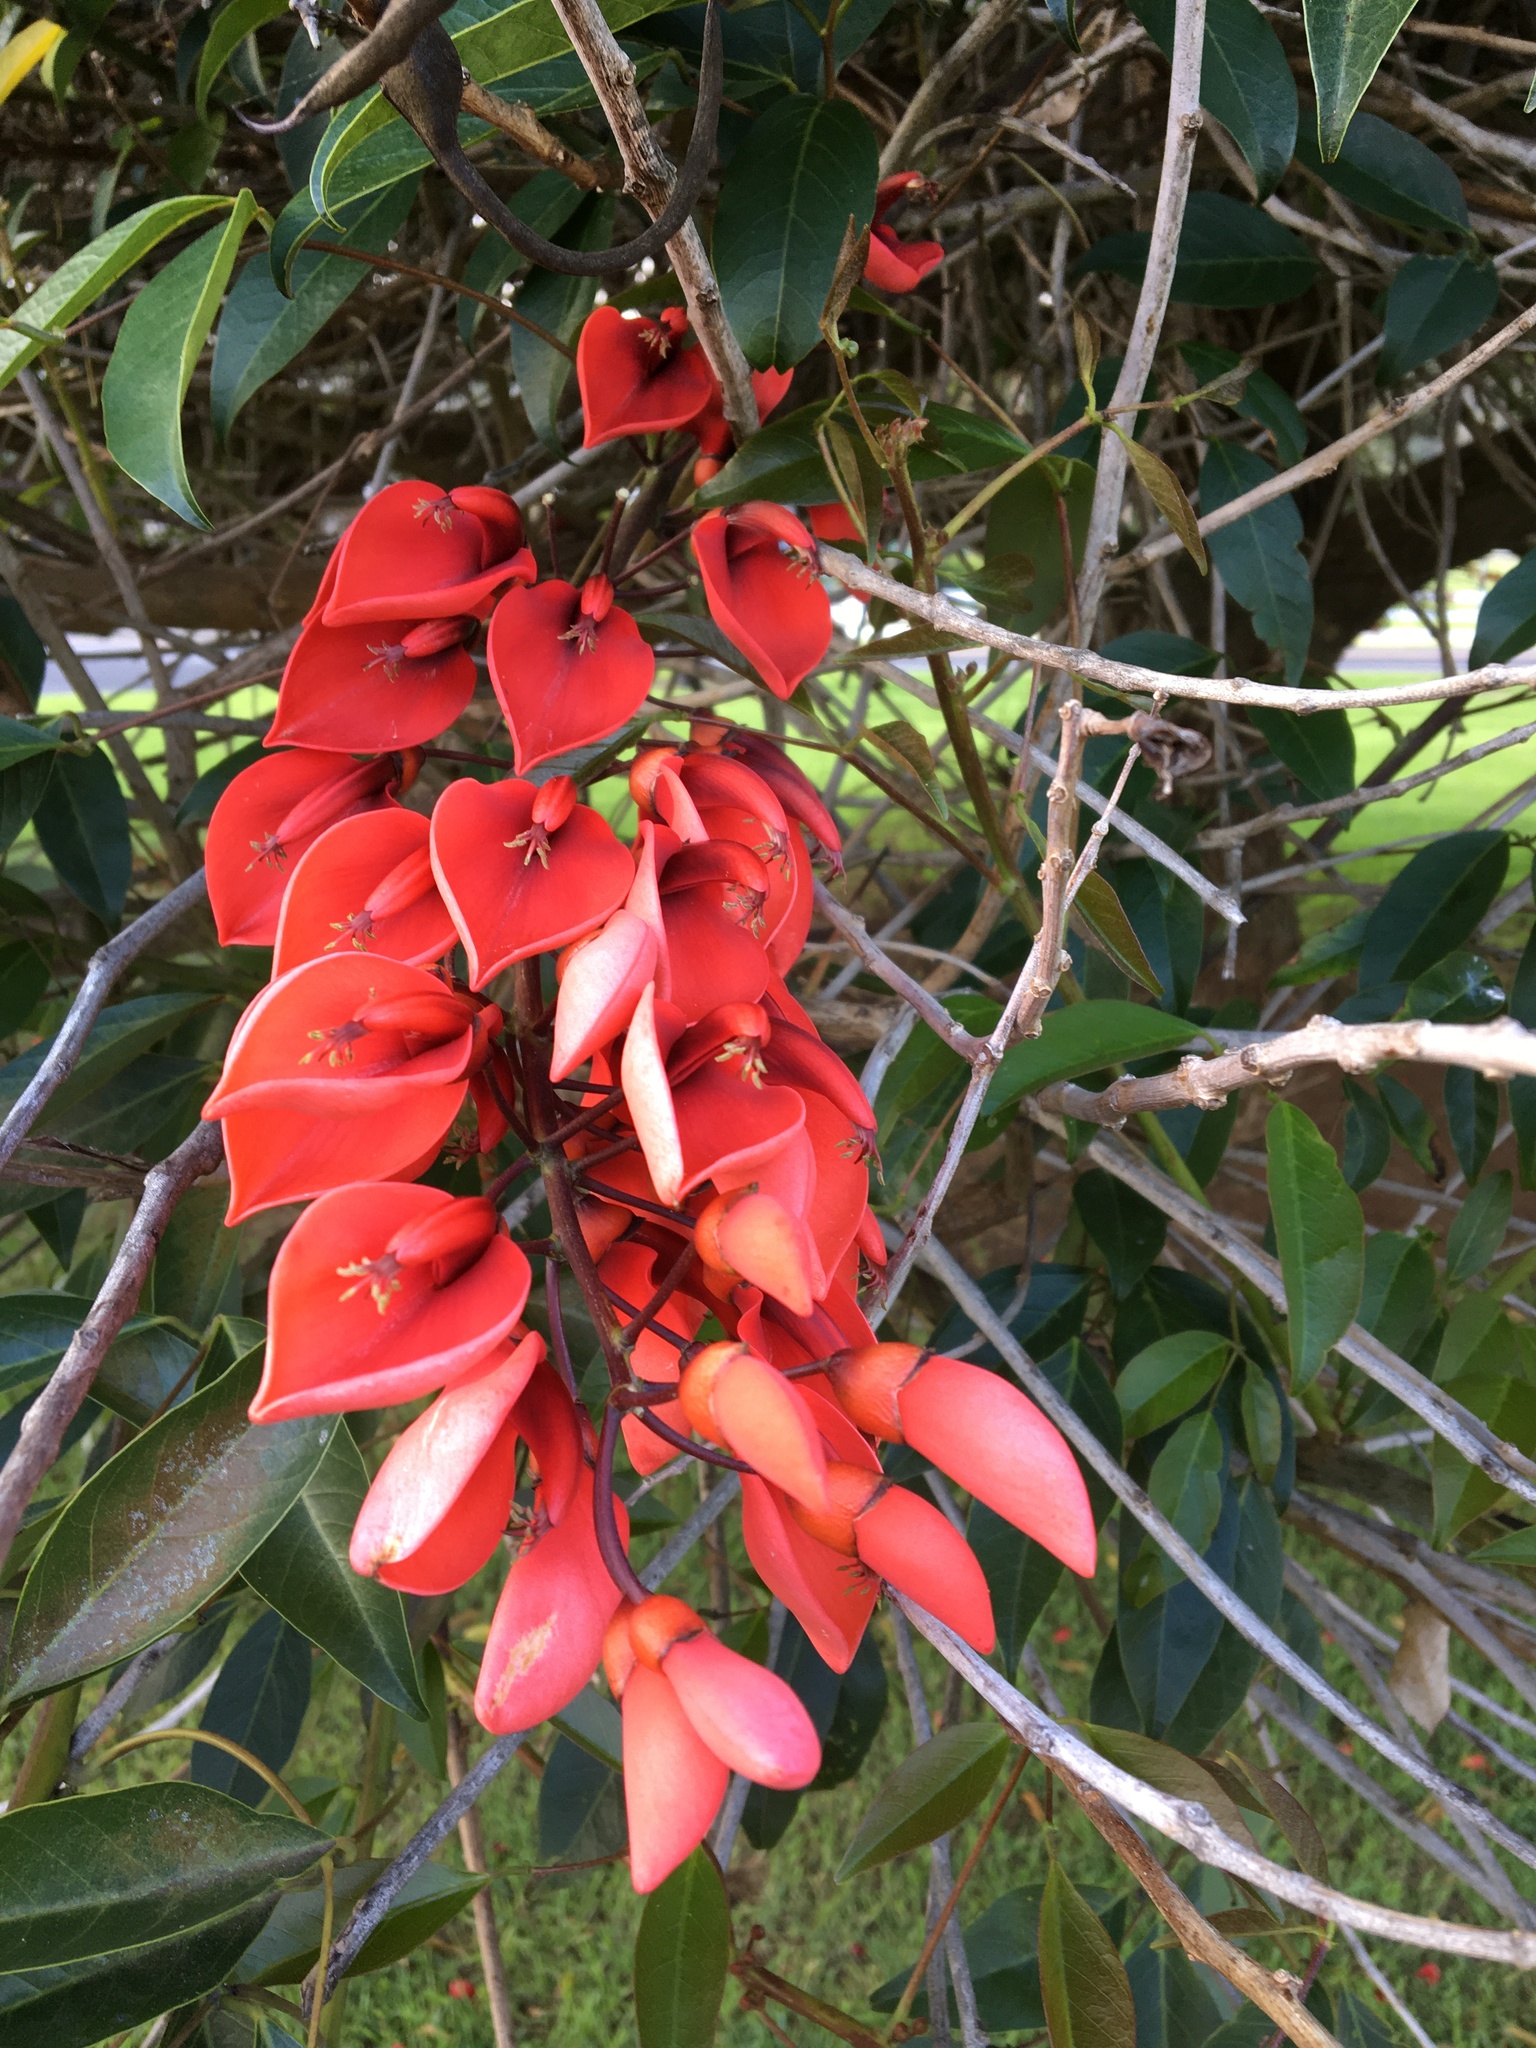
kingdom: Plantae
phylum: Tracheophyta
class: Magnoliopsida
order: Fabales
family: Fabaceae
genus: Erythrina
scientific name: Erythrina crista-galli
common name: Cockspur coral tree
